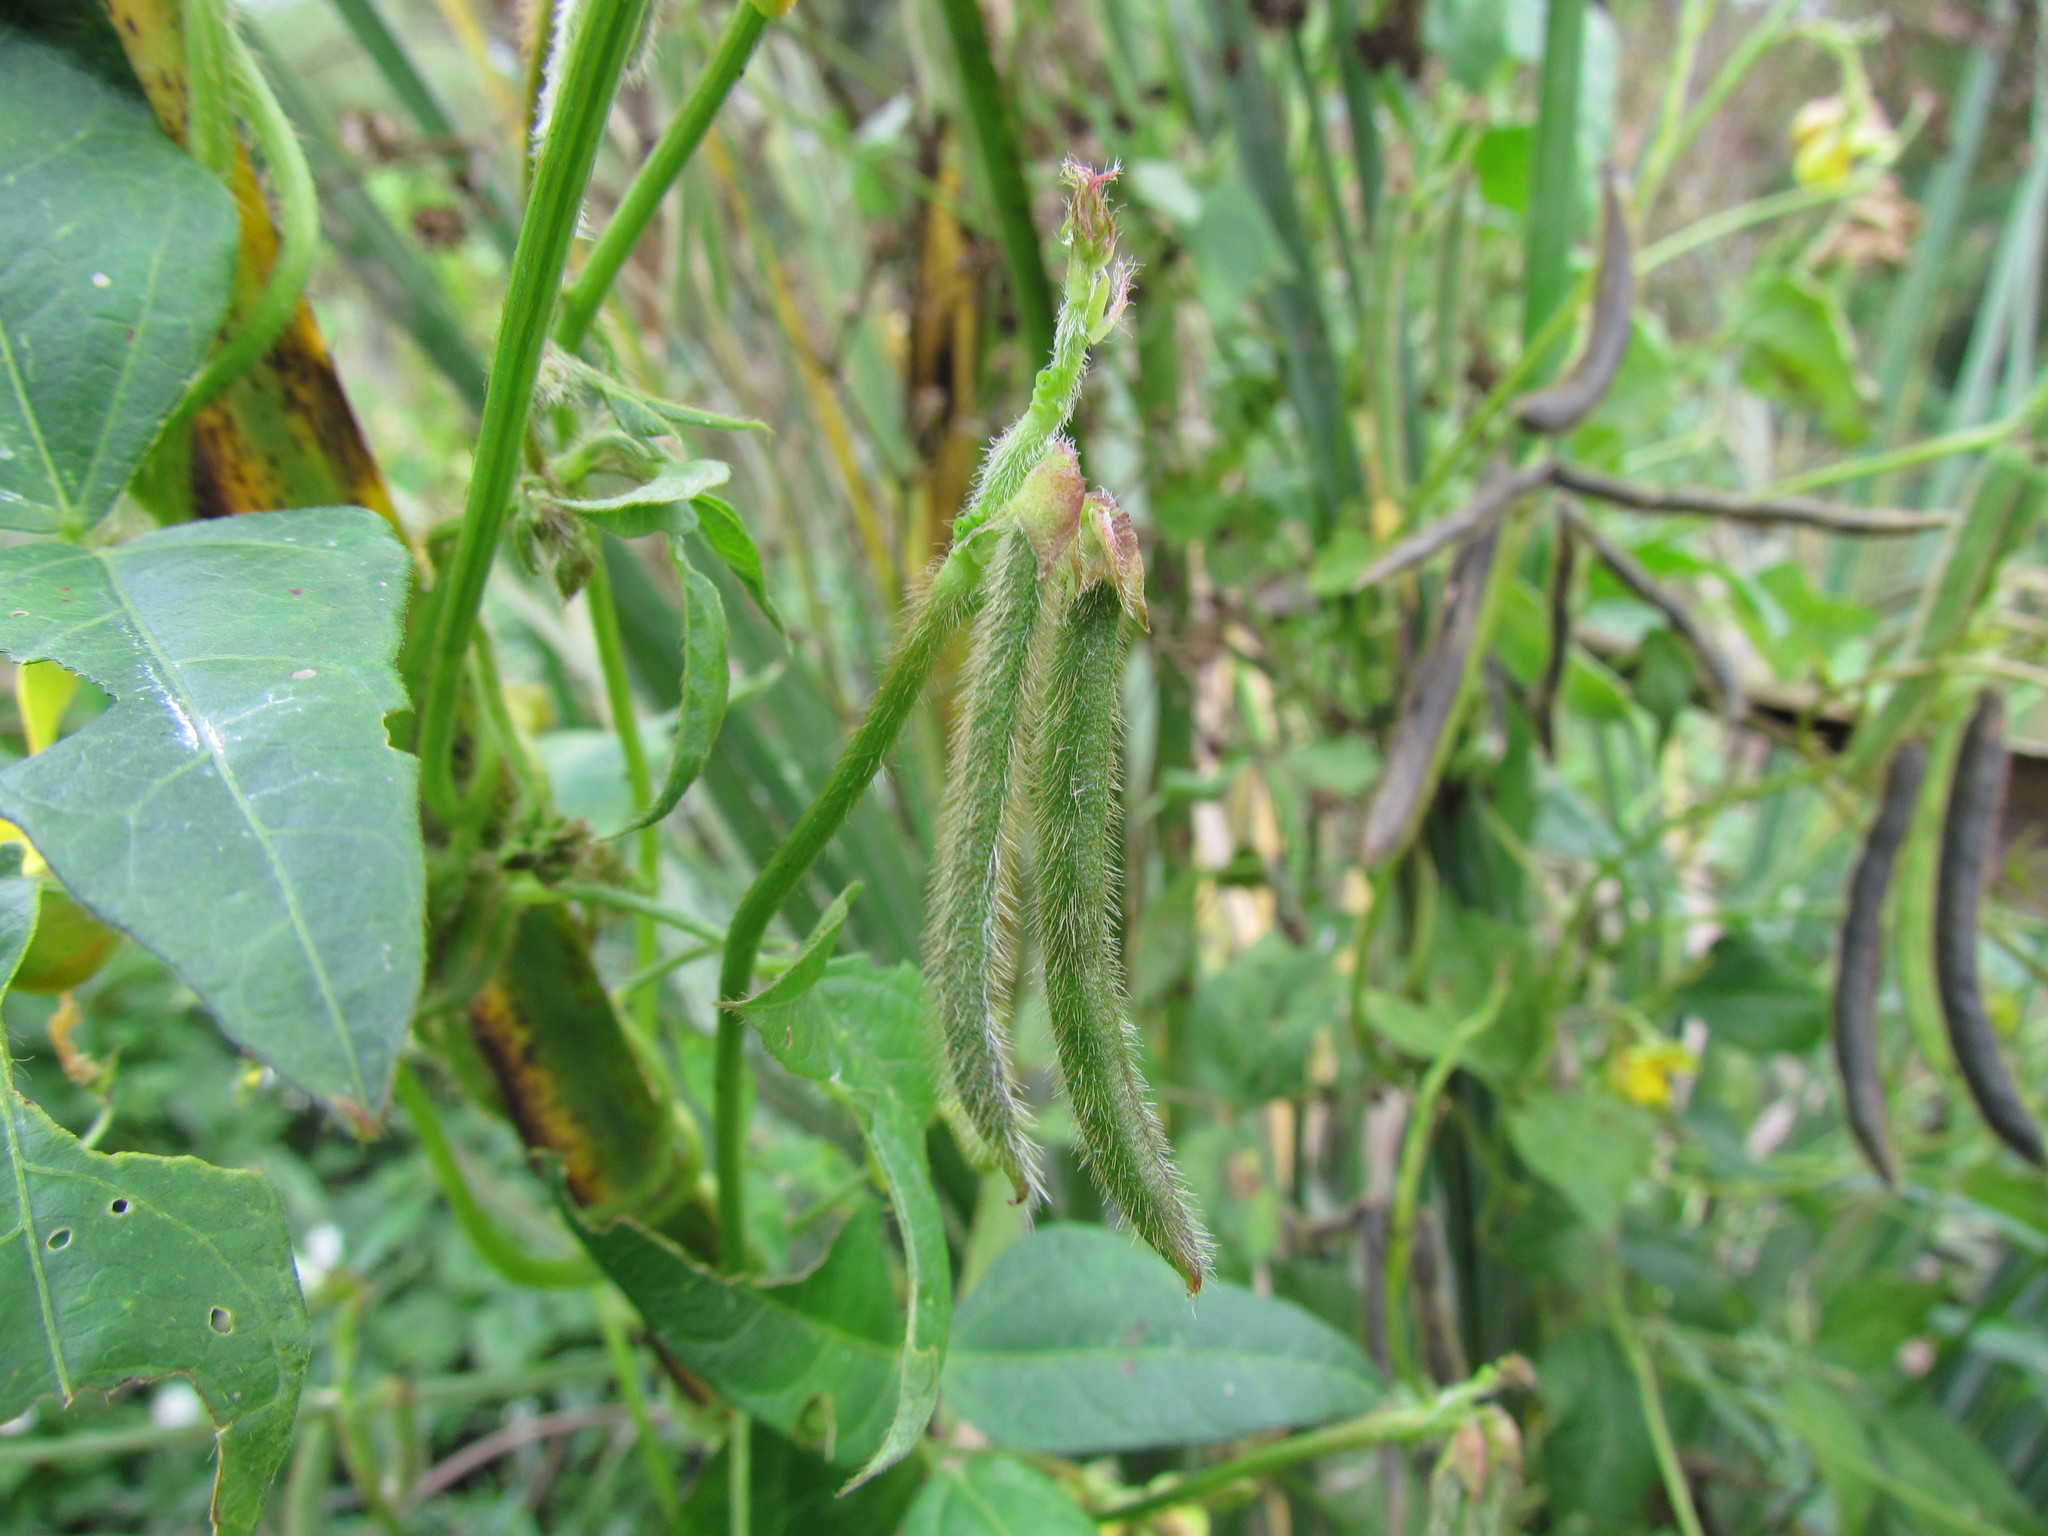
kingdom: Plantae
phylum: Tracheophyta
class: Magnoliopsida
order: Fabales
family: Fabaceae
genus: Vigna
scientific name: Vigna luteola
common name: Hairypod cowpea
